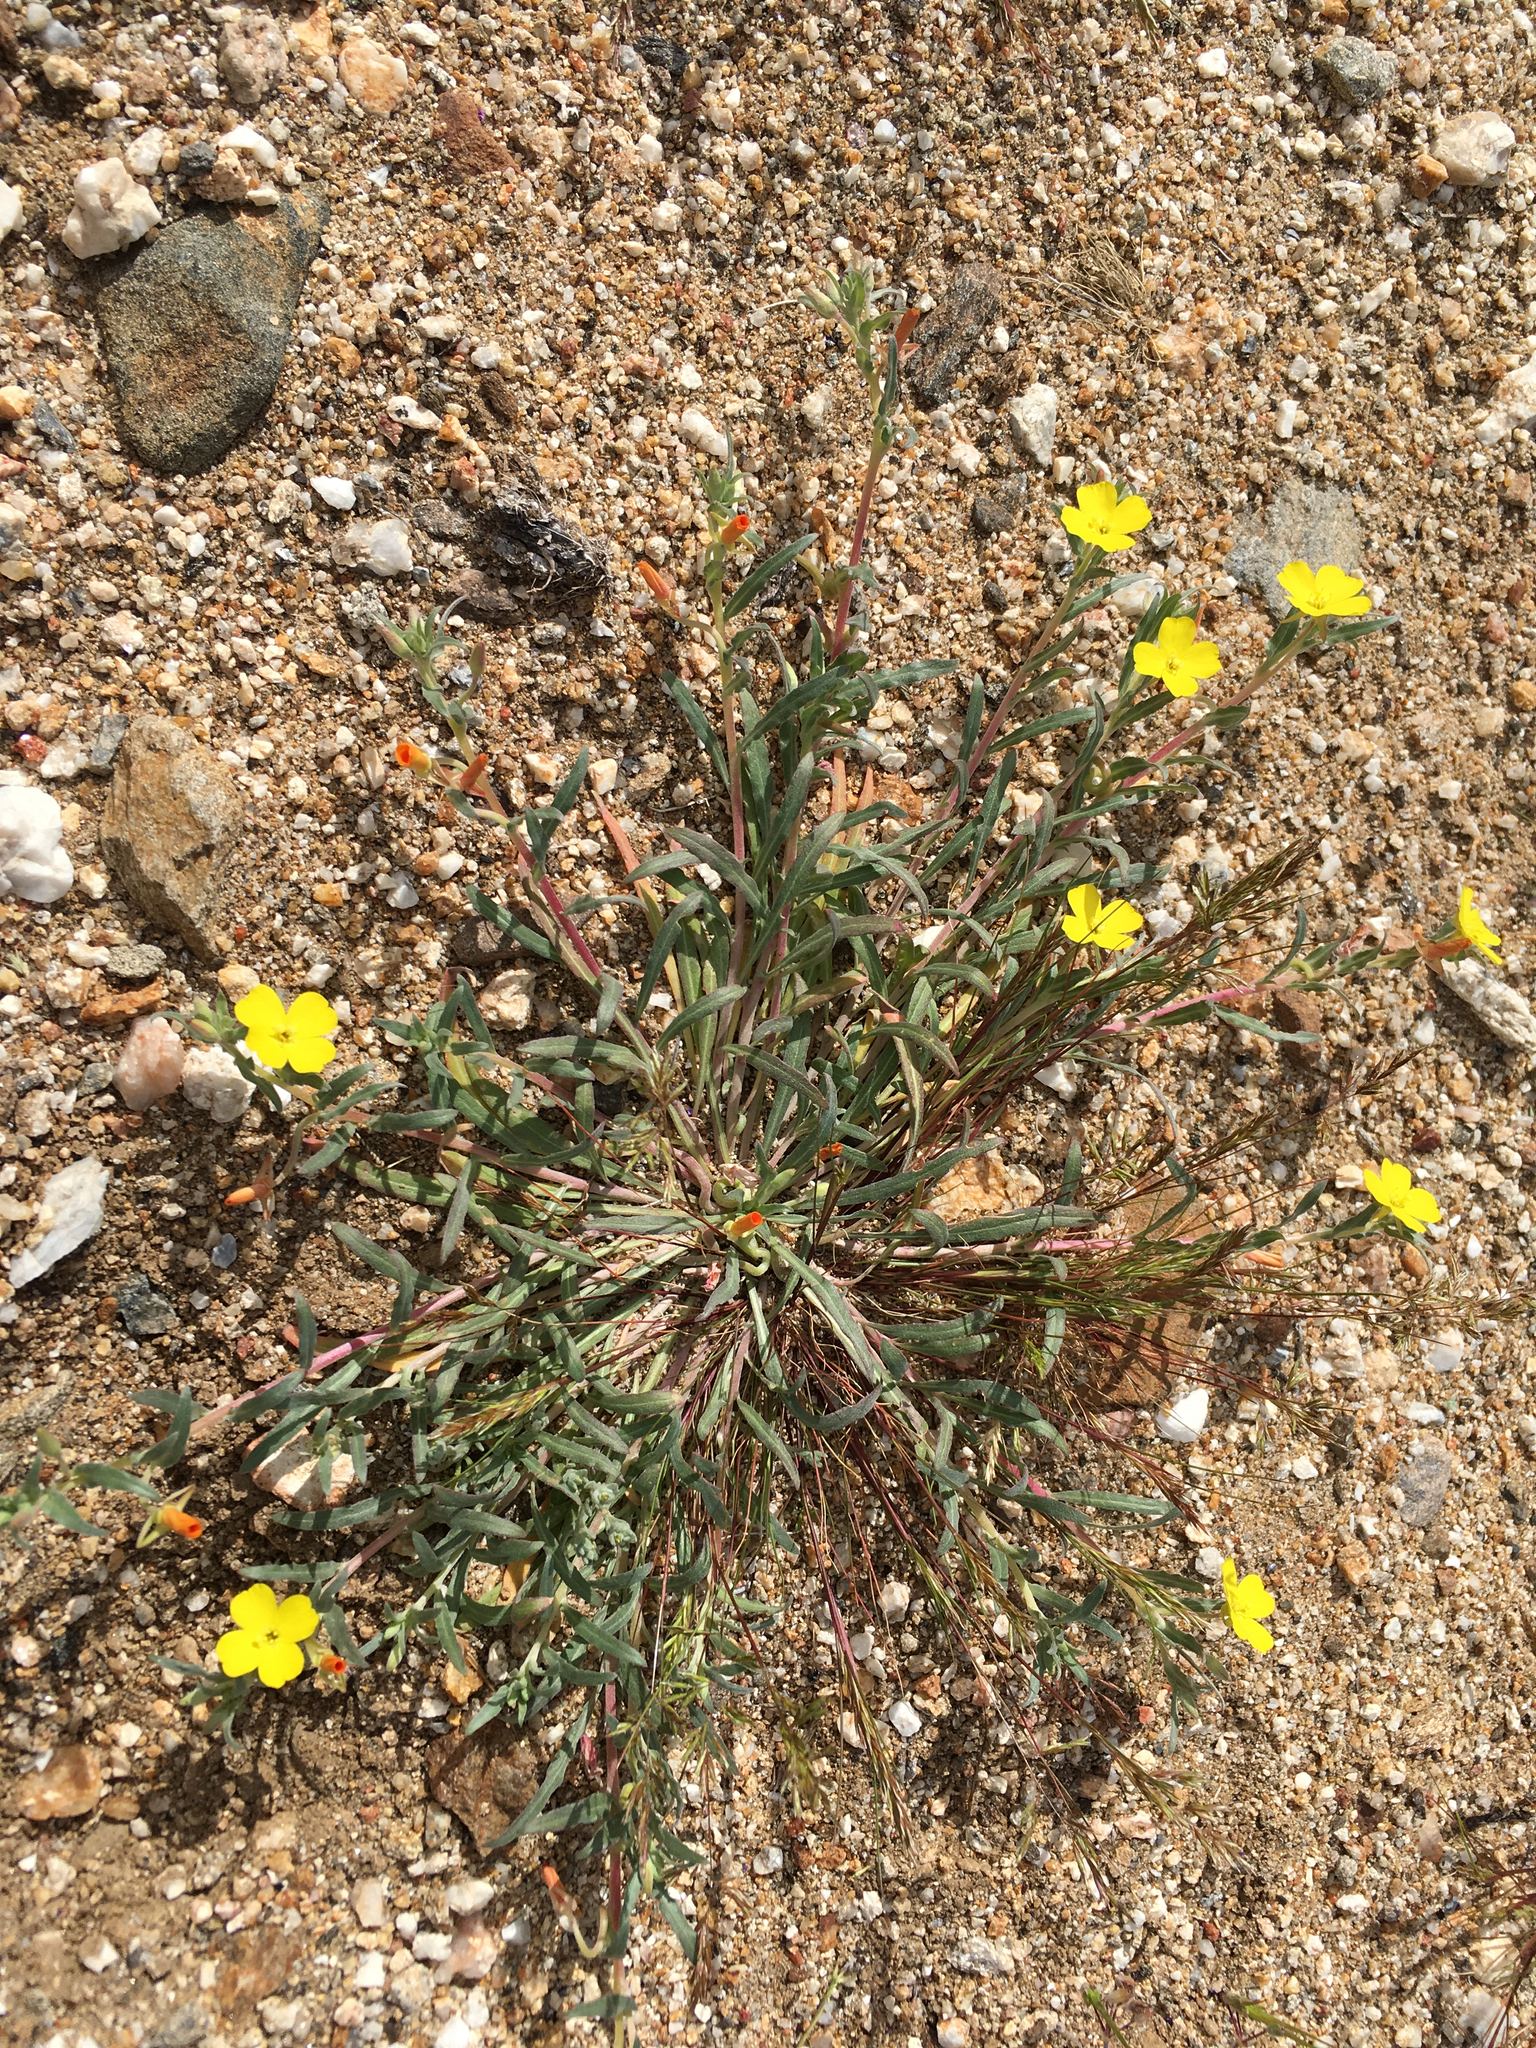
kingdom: Plantae
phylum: Tracheophyta
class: Magnoliopsida
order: Myrtales
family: Onagraceae
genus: Camissoniopsis
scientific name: Camissoniopsis pallida
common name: Paleyellow suncup
